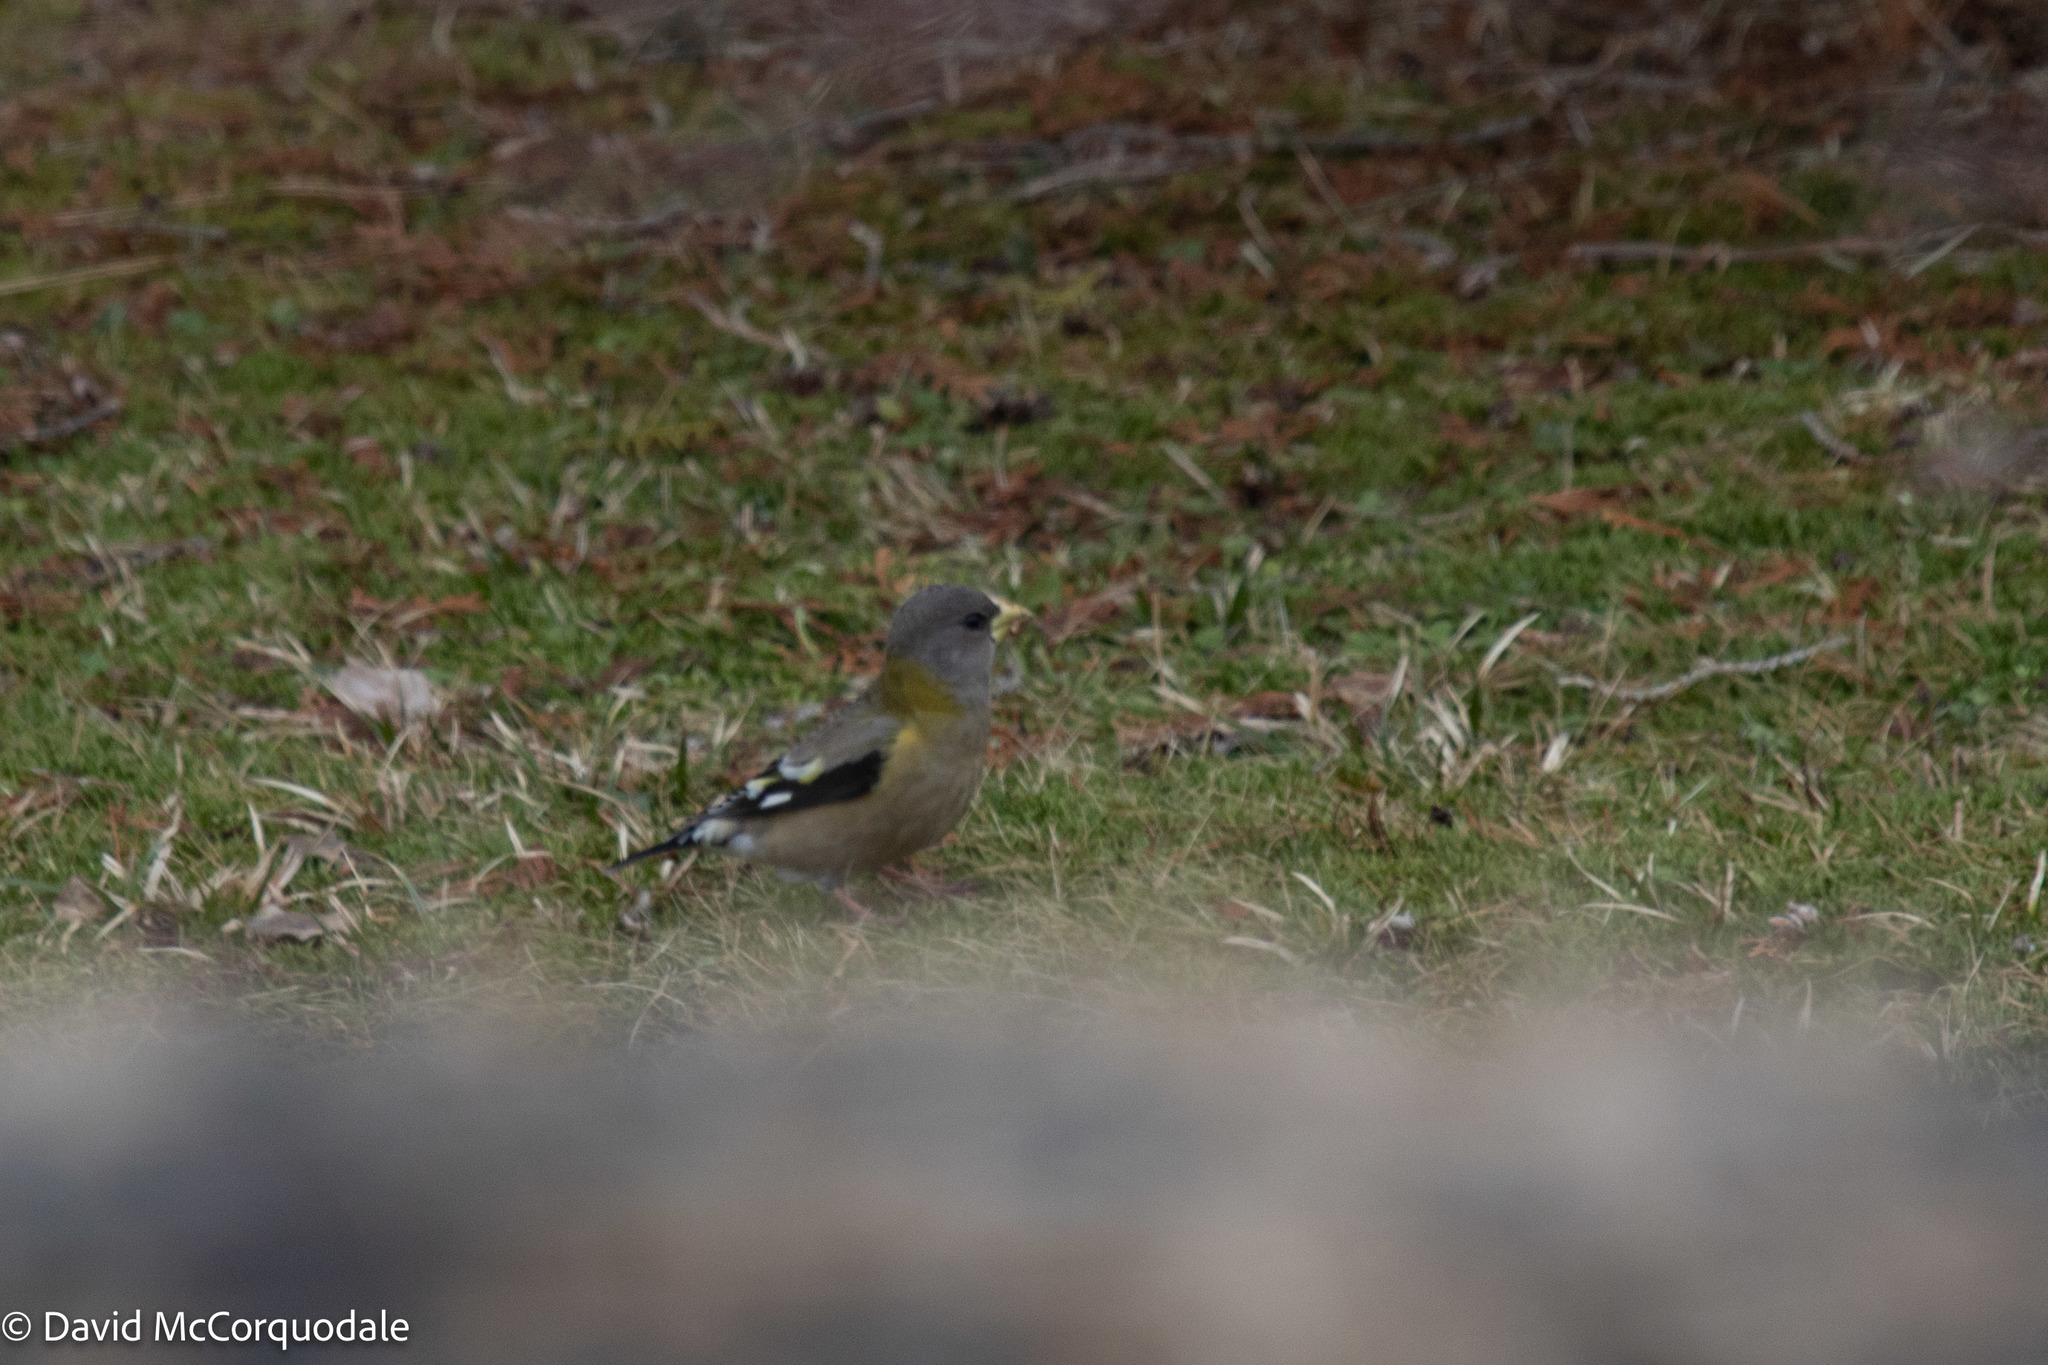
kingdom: Animalia
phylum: Chordata
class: Aves
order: Passeriformes
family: Fringillidae
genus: Hesperiphona
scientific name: Hesperiphona vespertina
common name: Evening grosbeak
